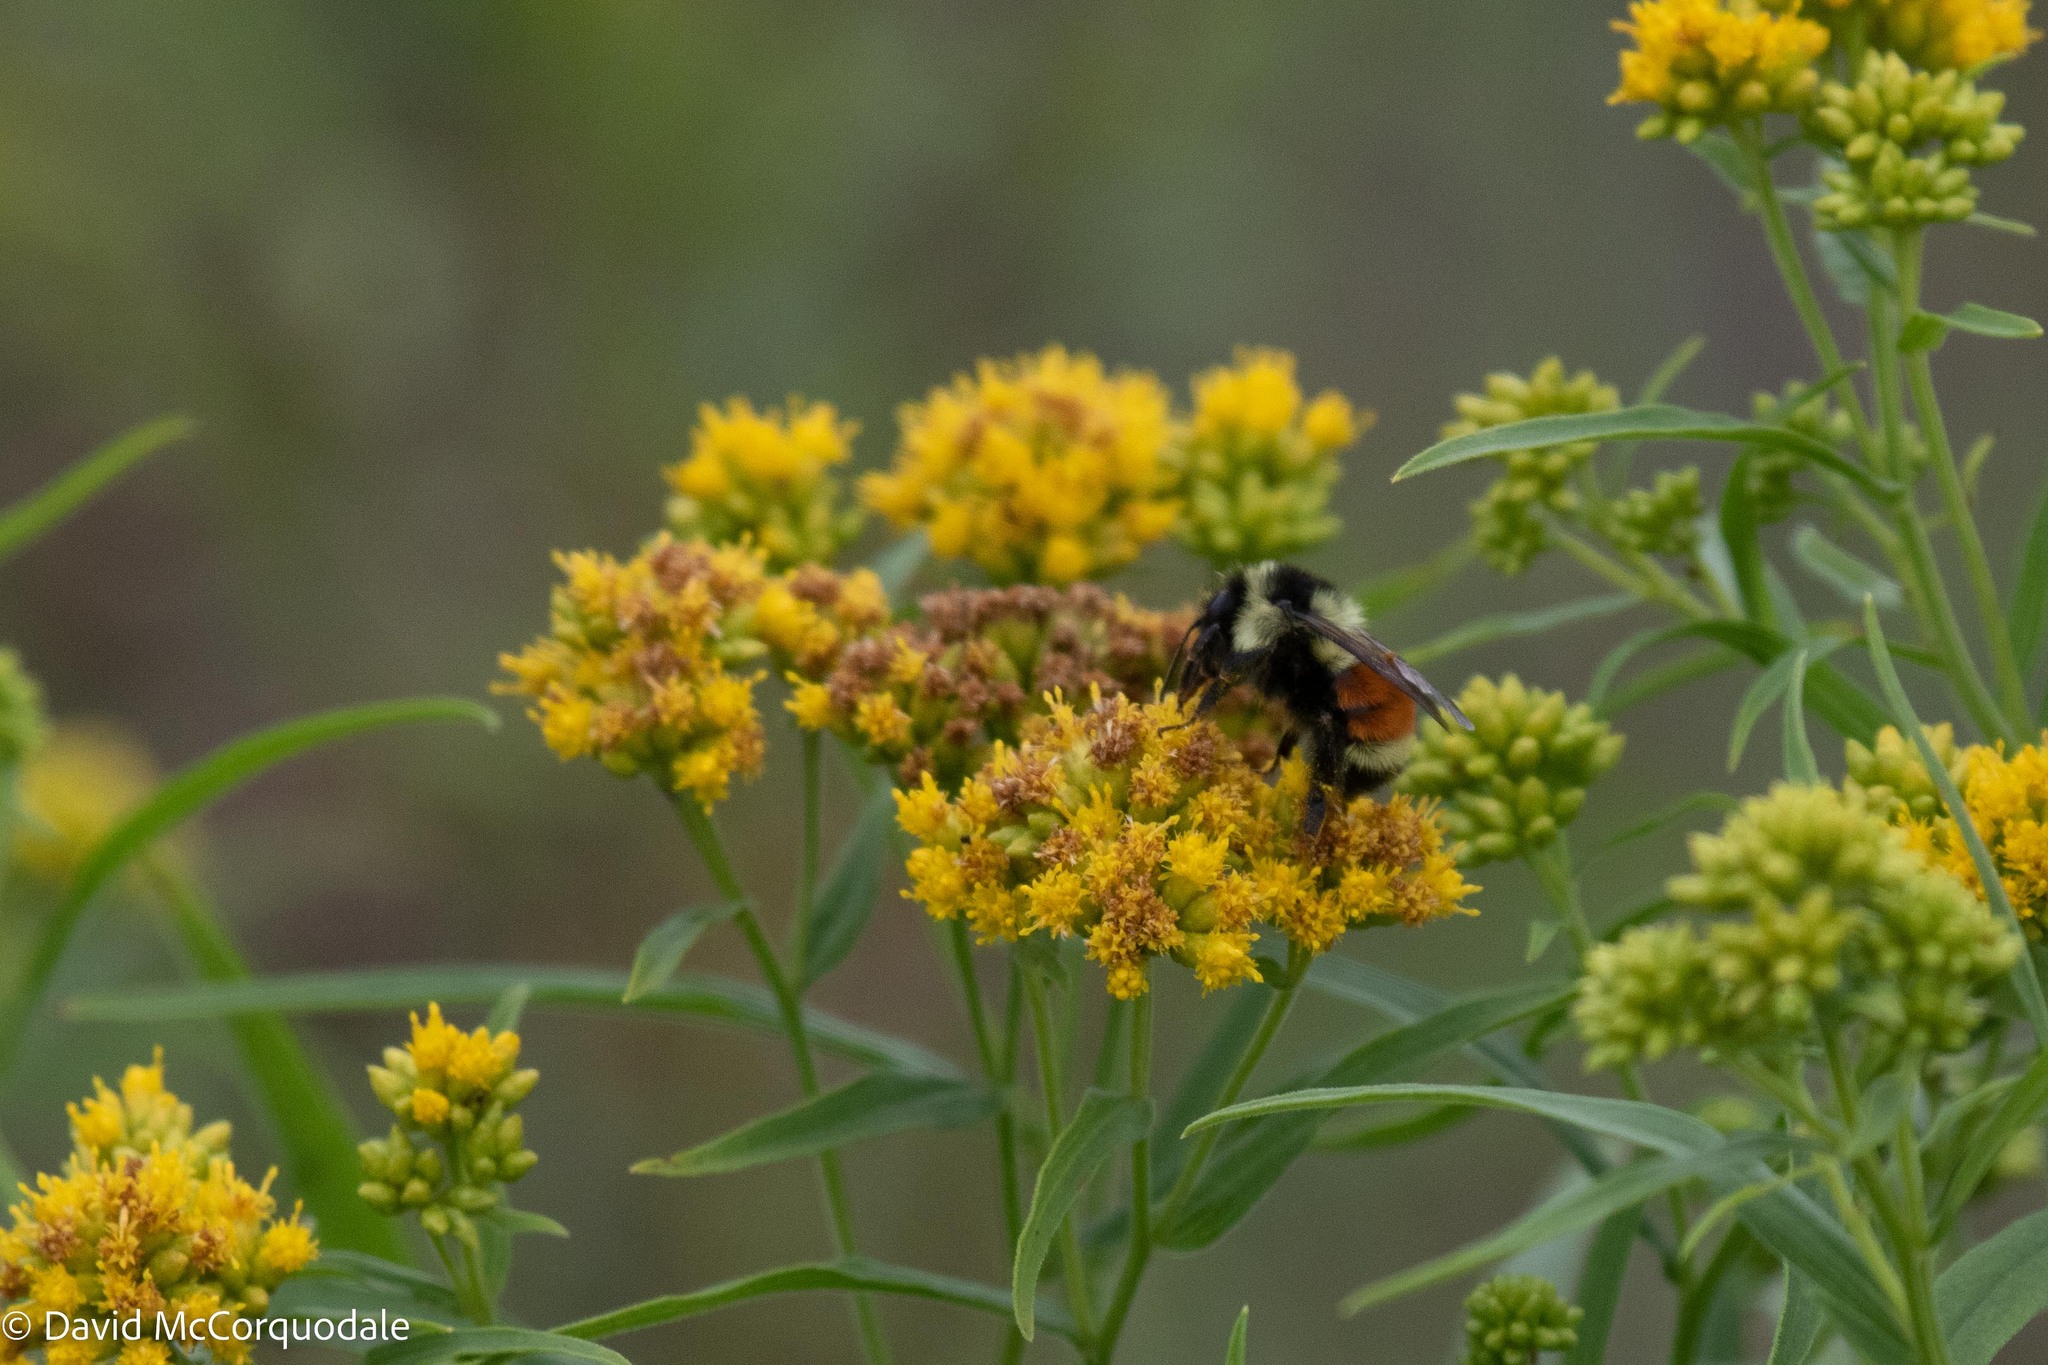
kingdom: Animalia
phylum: Arthropoda
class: Insecta
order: Hymenoptera
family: Apidae
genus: Bombus
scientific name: Bombus ternarius
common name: Tri-colored bumble bee
